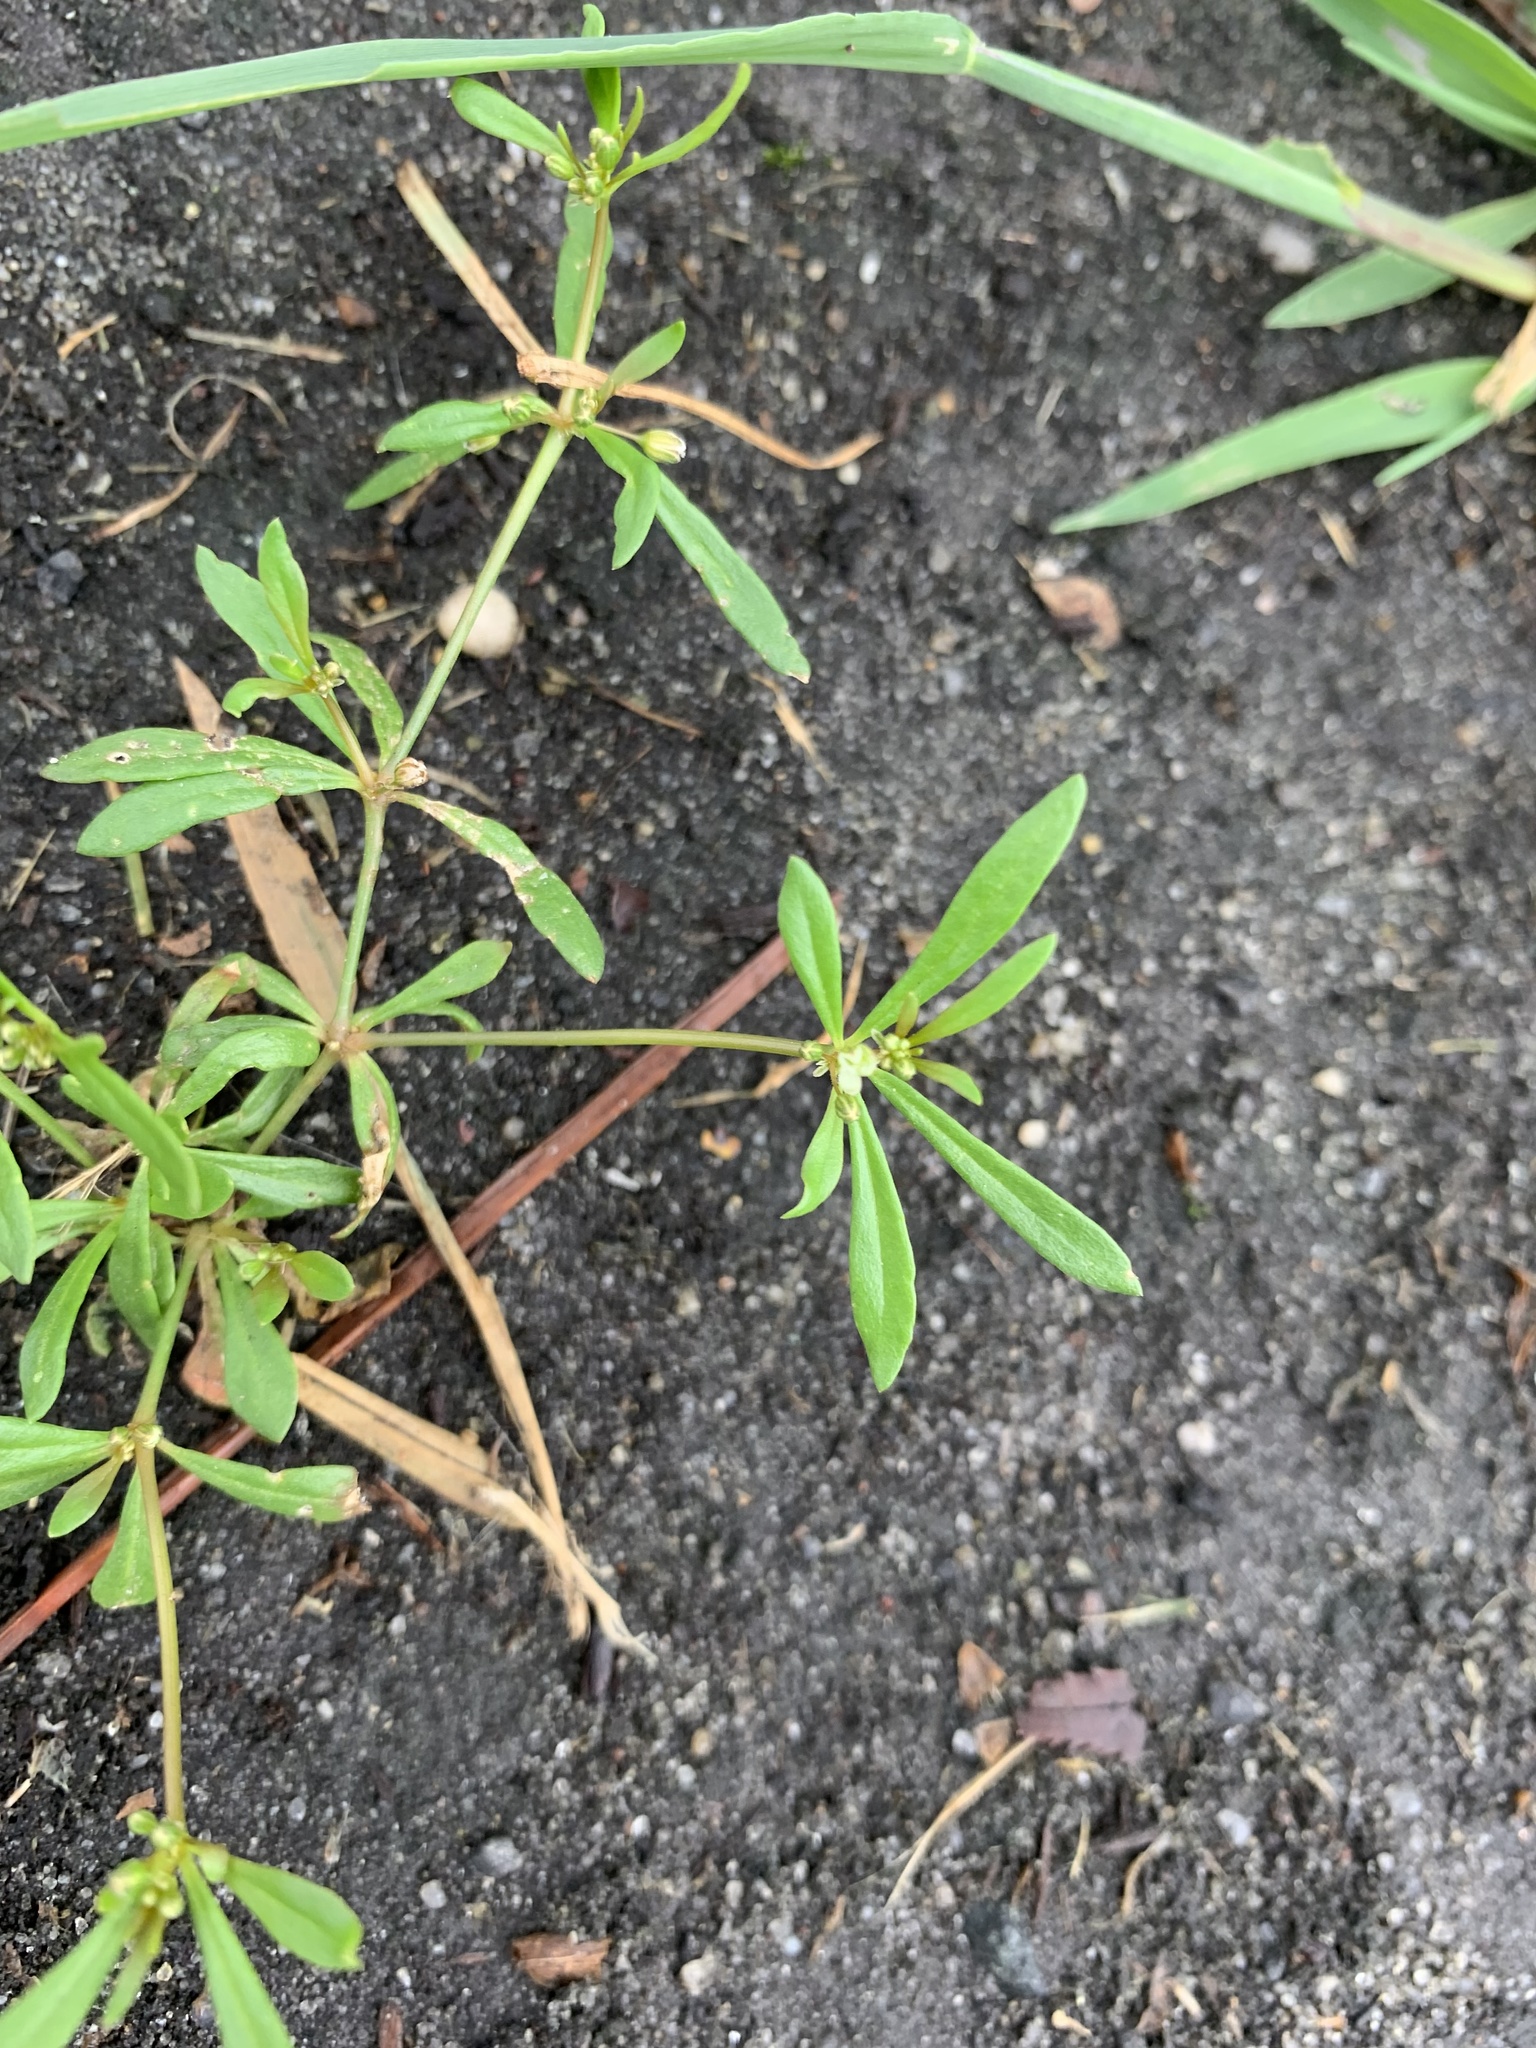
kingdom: Plantae
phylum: Tracheophyta
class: Magnoliopsida
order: Caryophyllales
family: Molluginaceae
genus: Mollugo
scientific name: Mollugo verticillata
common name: Green carpetweed
